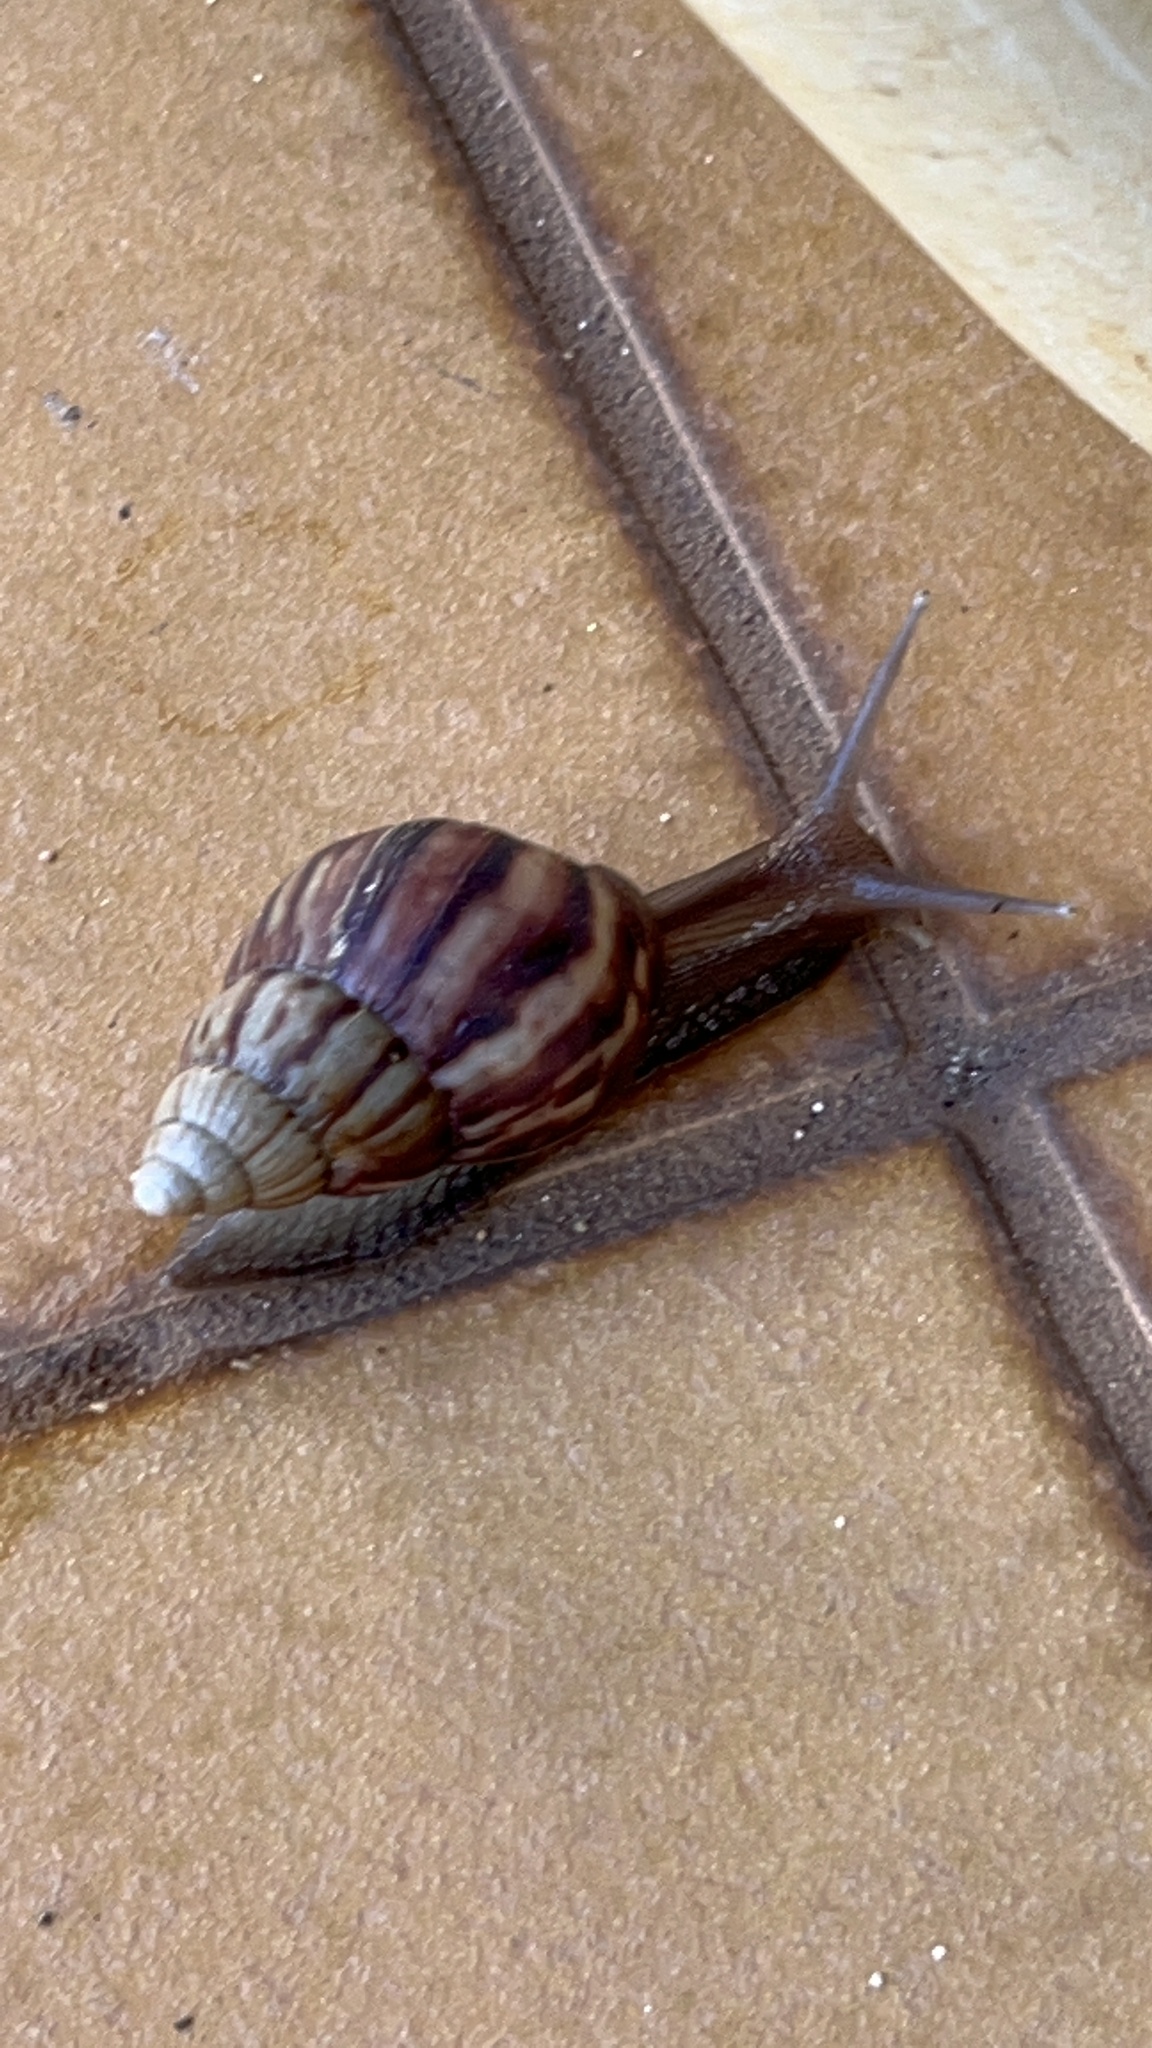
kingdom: Animalia
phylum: Mollusca
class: Gastropoda
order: Stylommatophora
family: Achatinidae
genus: Lissachatina
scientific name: Lissachatina fulica
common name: Giant african snail
